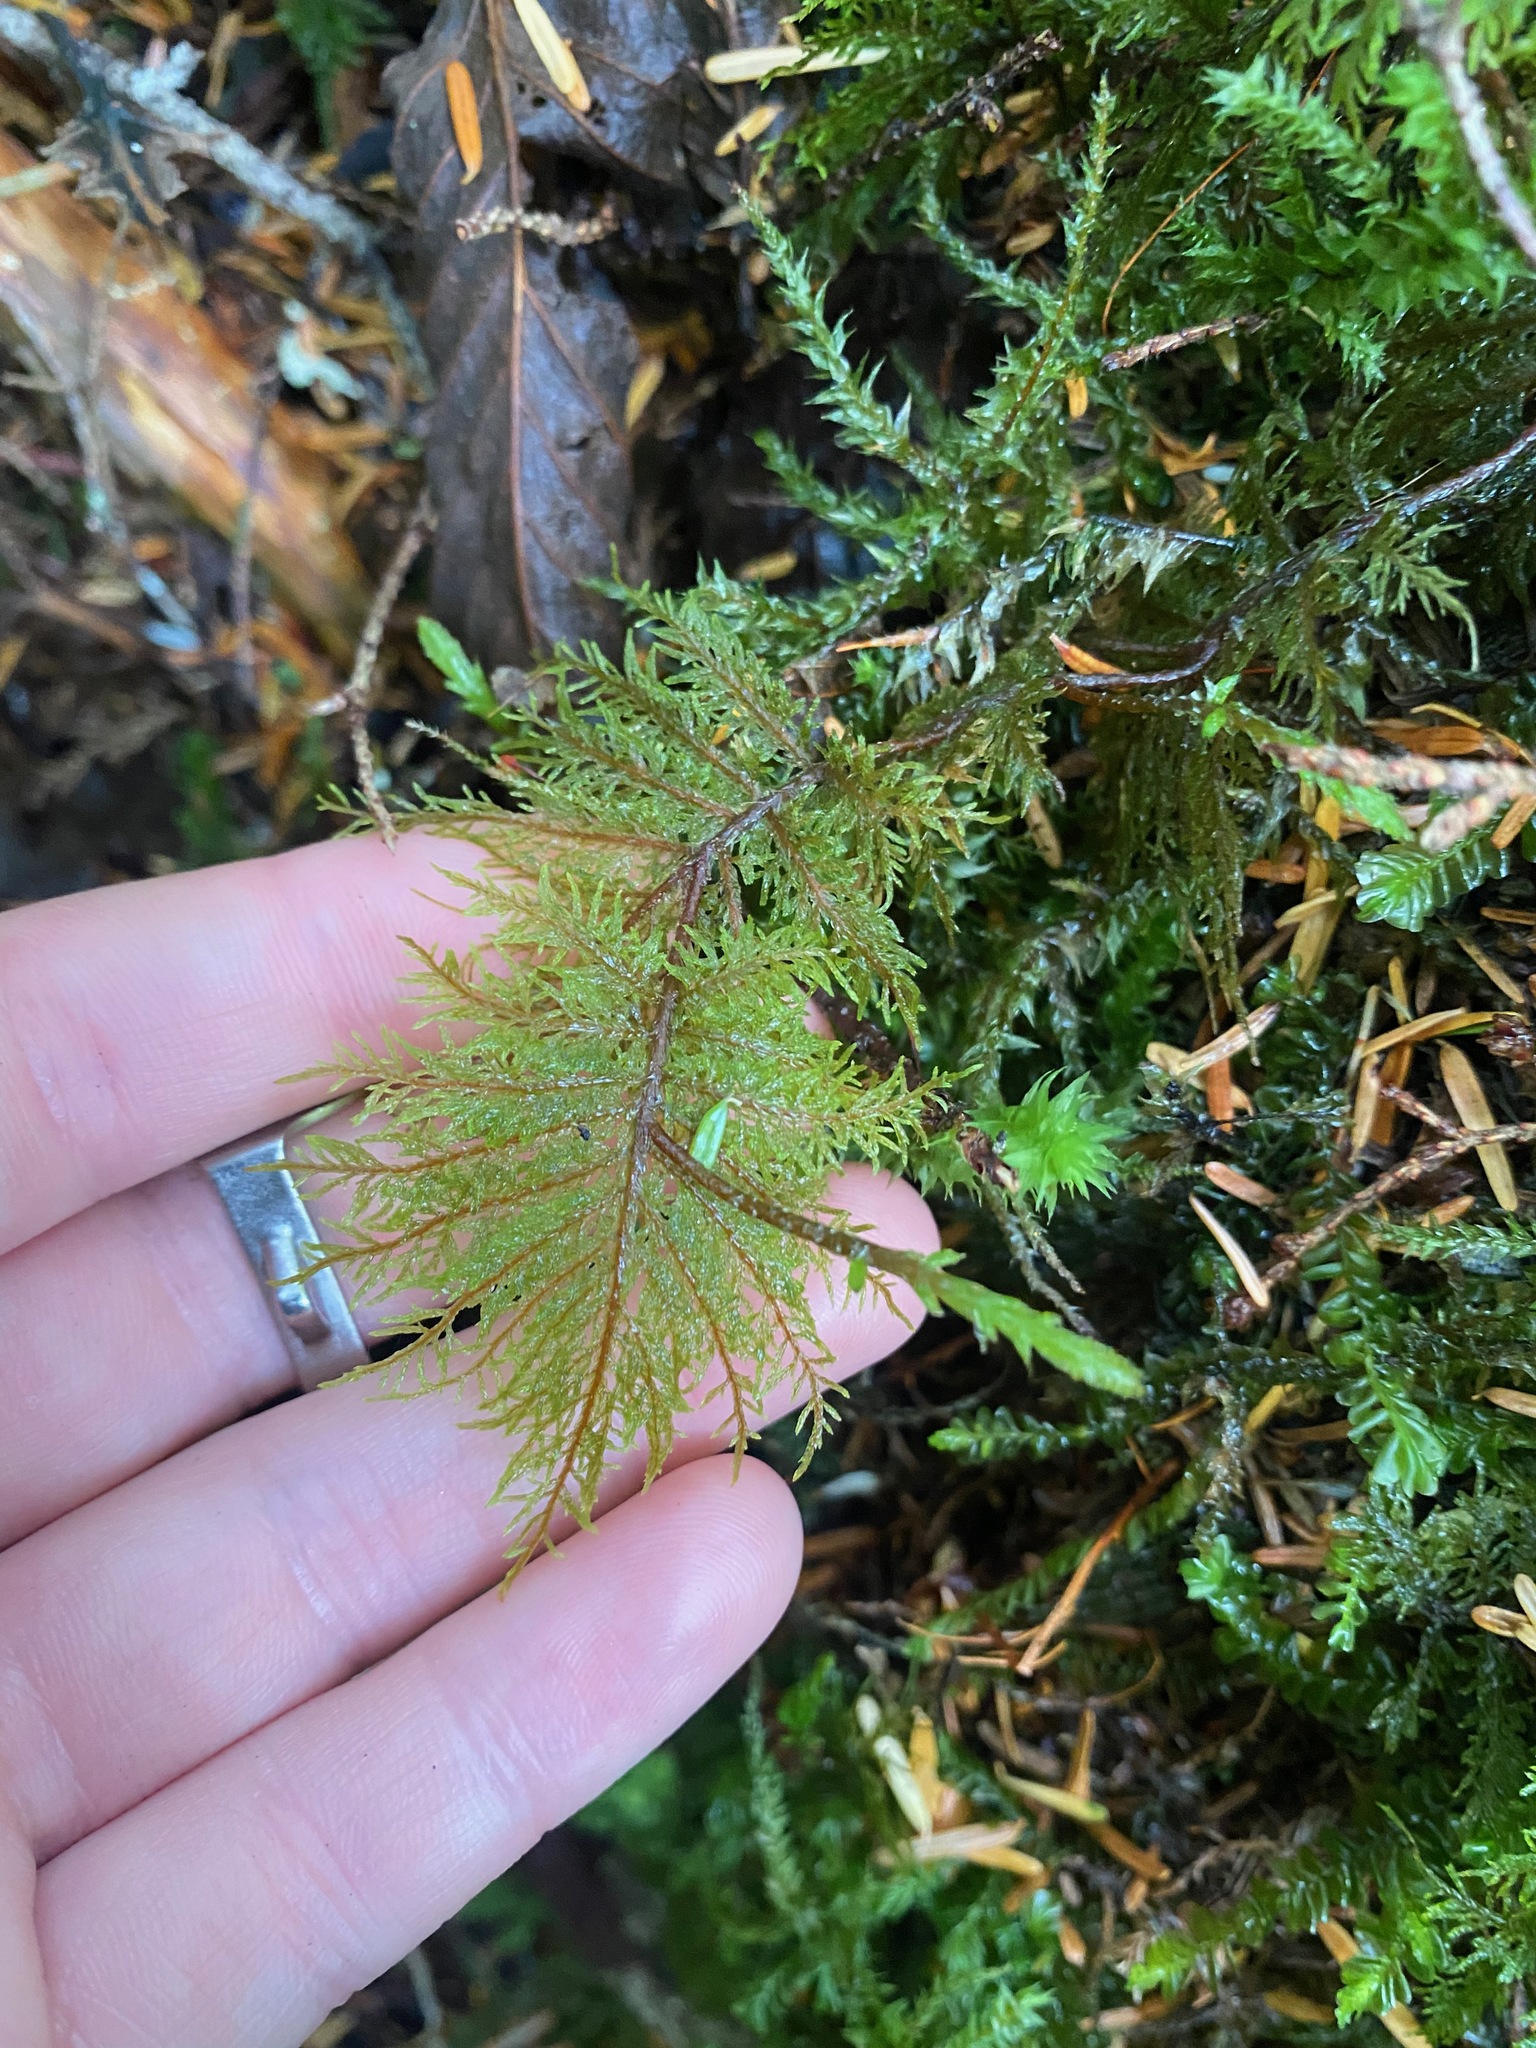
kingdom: Plantae
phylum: Bryophyta
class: Bryopsida
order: Hypnales
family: Hylocomiaceae
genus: Hylocomium
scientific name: Hylocomium splendens
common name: Stairstep moss
